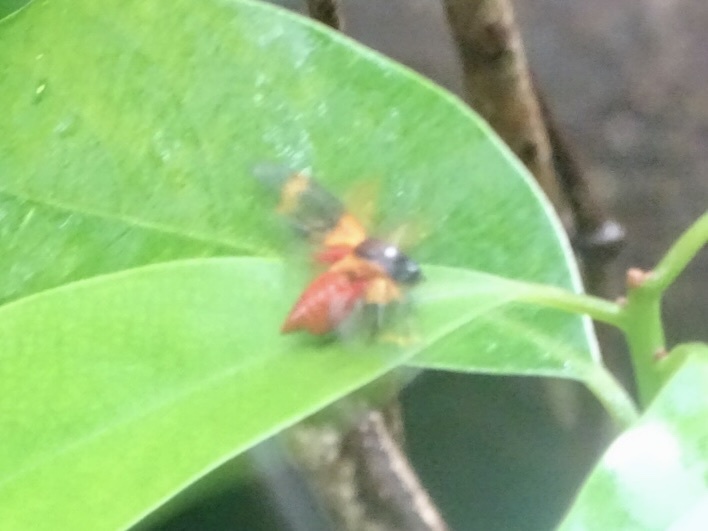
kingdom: Animalia
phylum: Arthropoda
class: Insecta
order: Hemiptera
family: Cercopidae
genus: Cosmoscarta
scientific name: Cosmoscarta abdominalis
